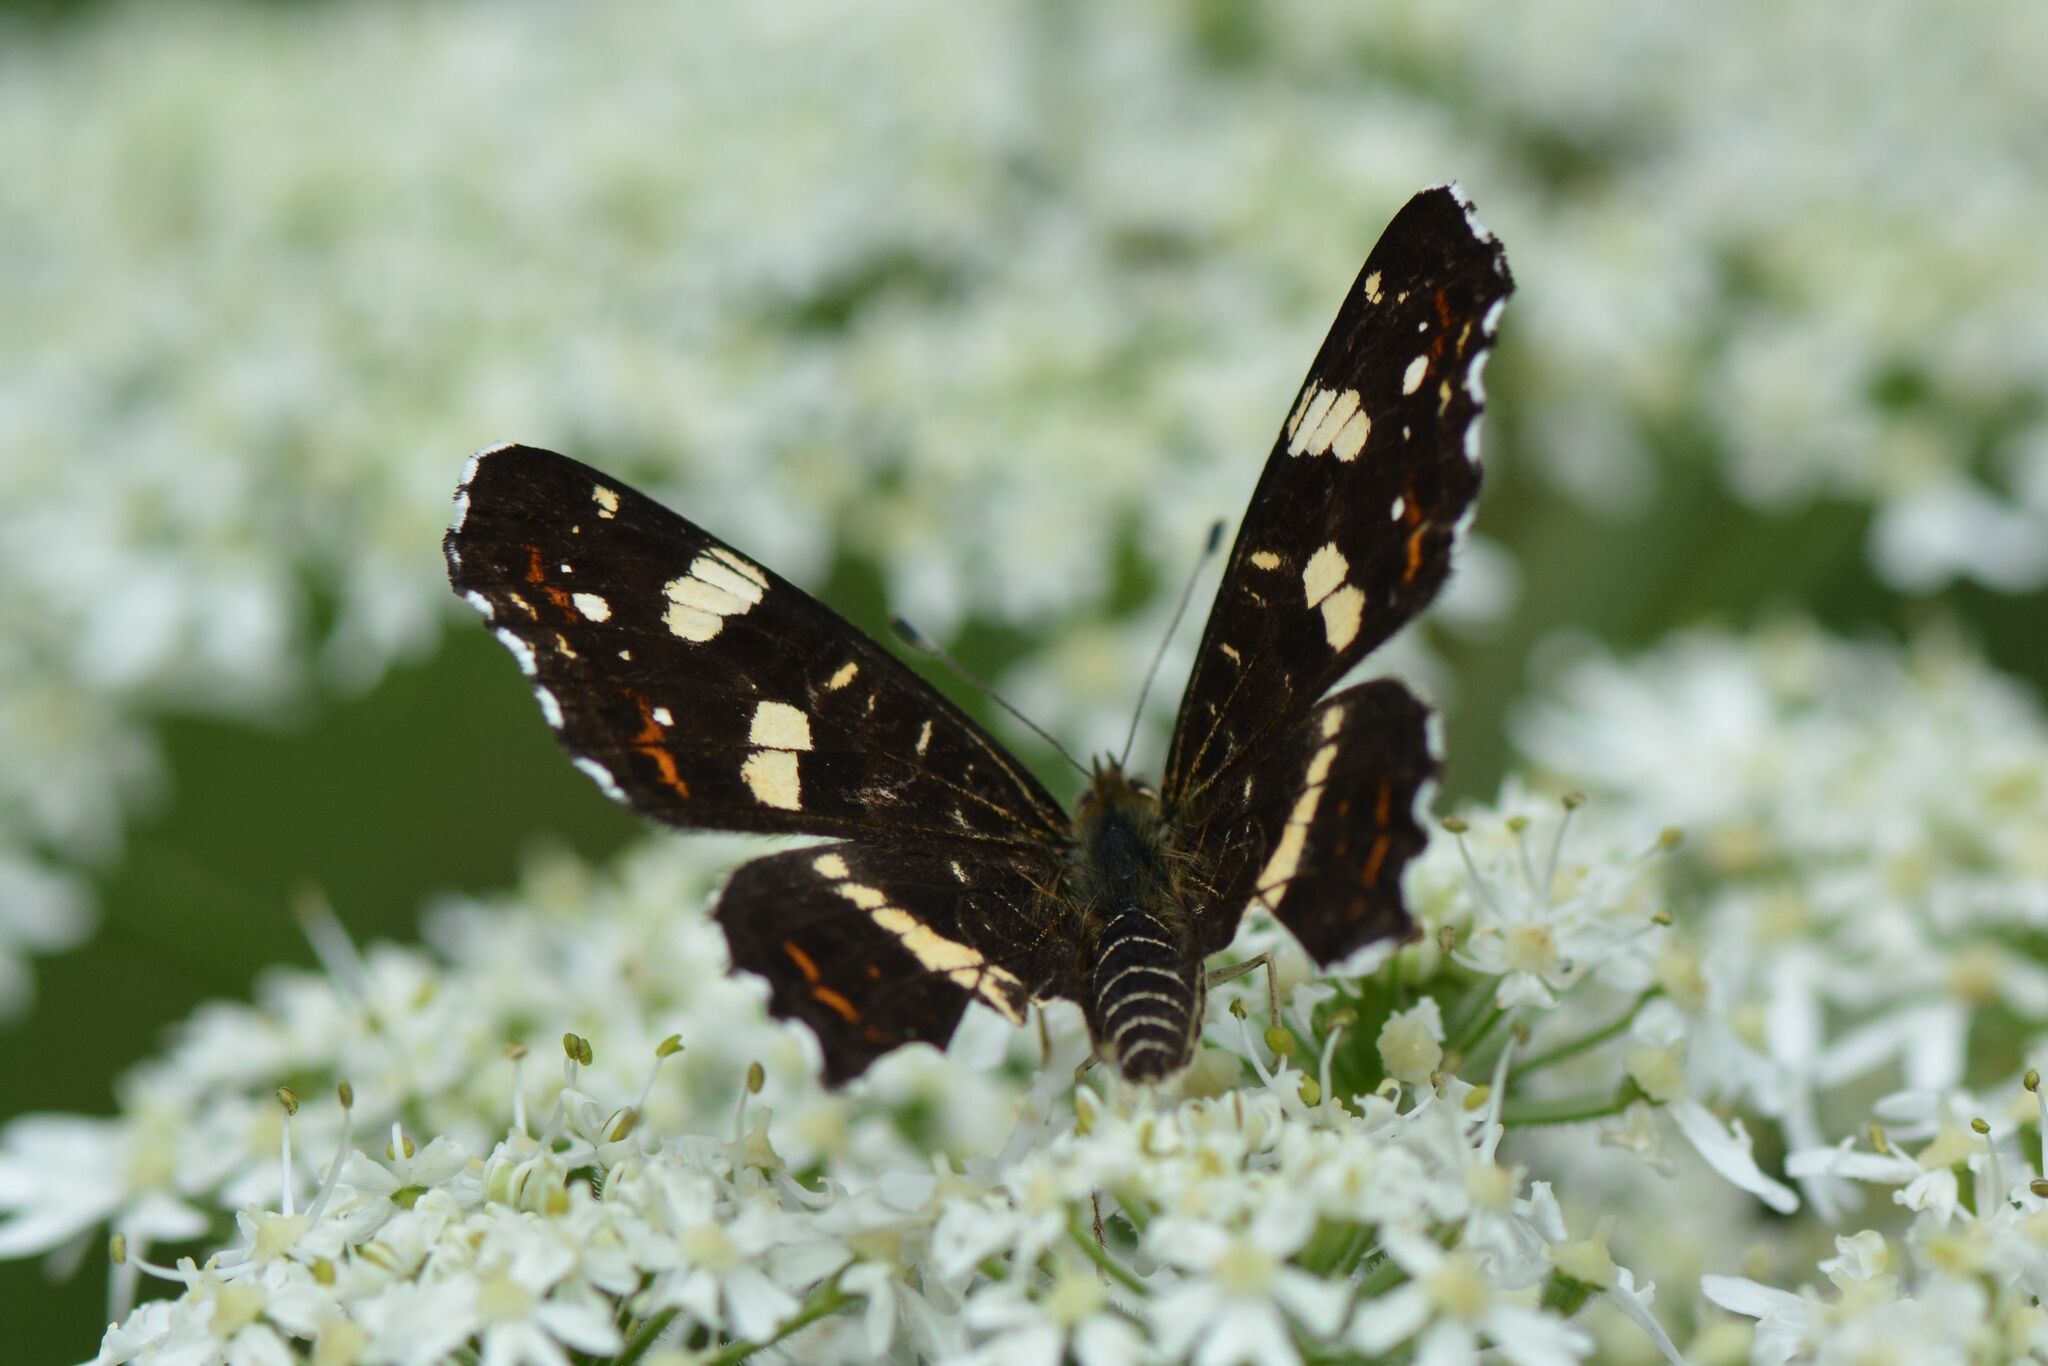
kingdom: Animalia
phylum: Arthropoda
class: Insecta
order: Lepidoptera
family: Nymphalidae
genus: Araschnia
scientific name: Araschnia levana
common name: Map butterfly
